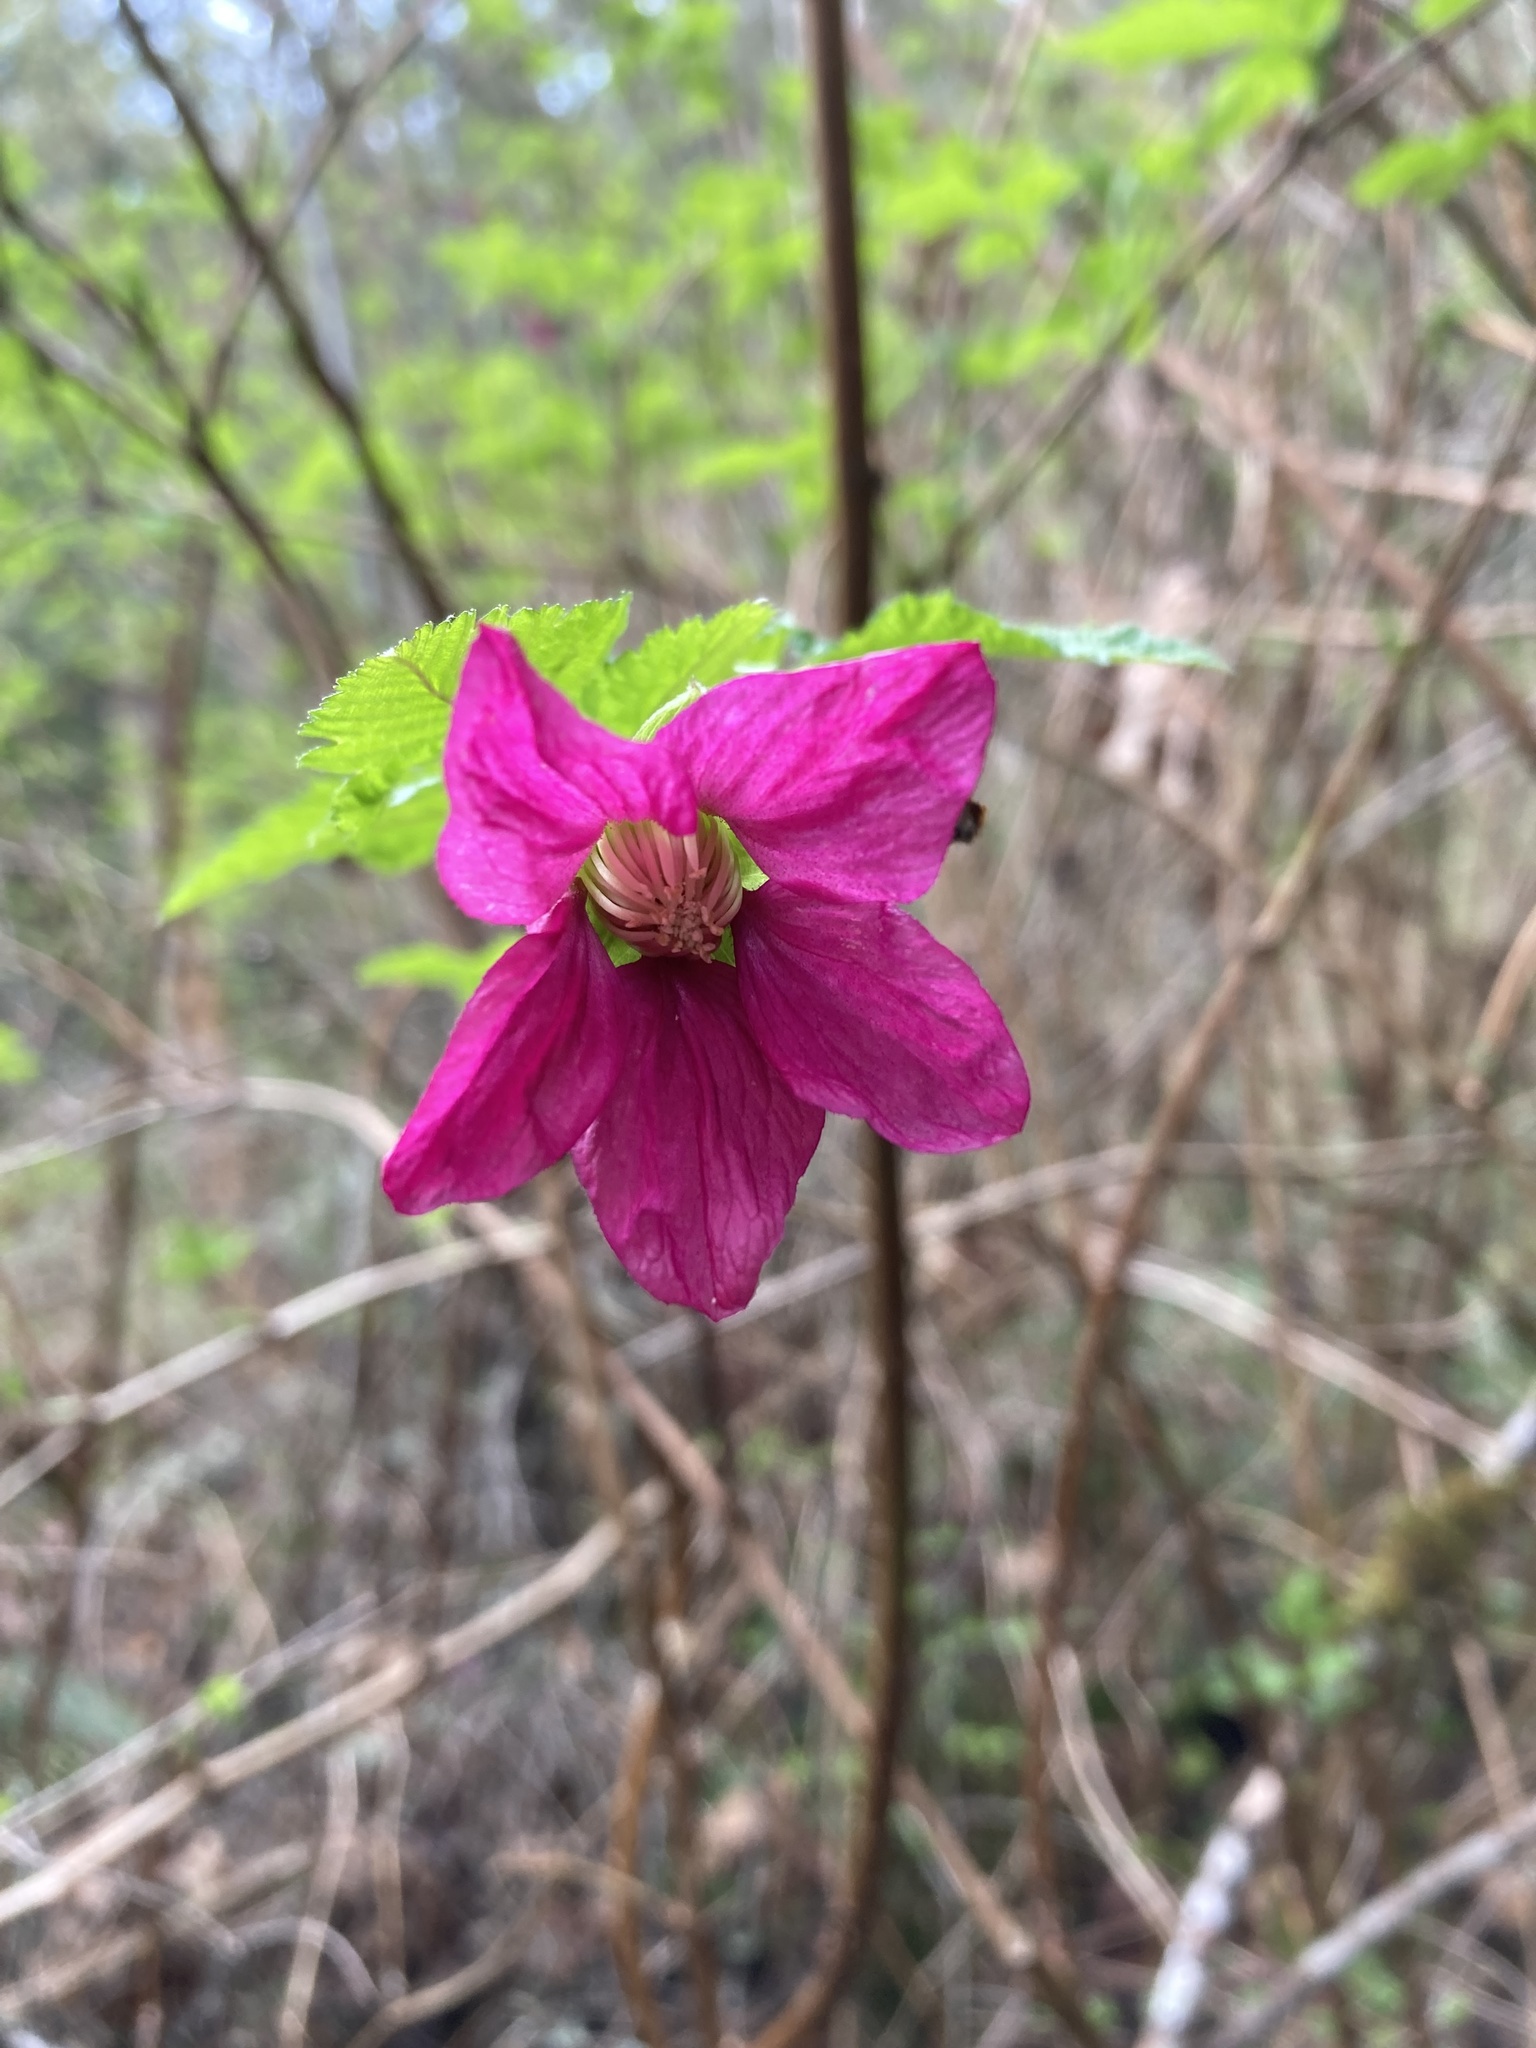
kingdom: Plantae
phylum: Tracheophyta
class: Magnoliopsida
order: Rosales
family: Rosaceae
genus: Rubus
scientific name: Rubus spectabilis
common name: Salmonberry
